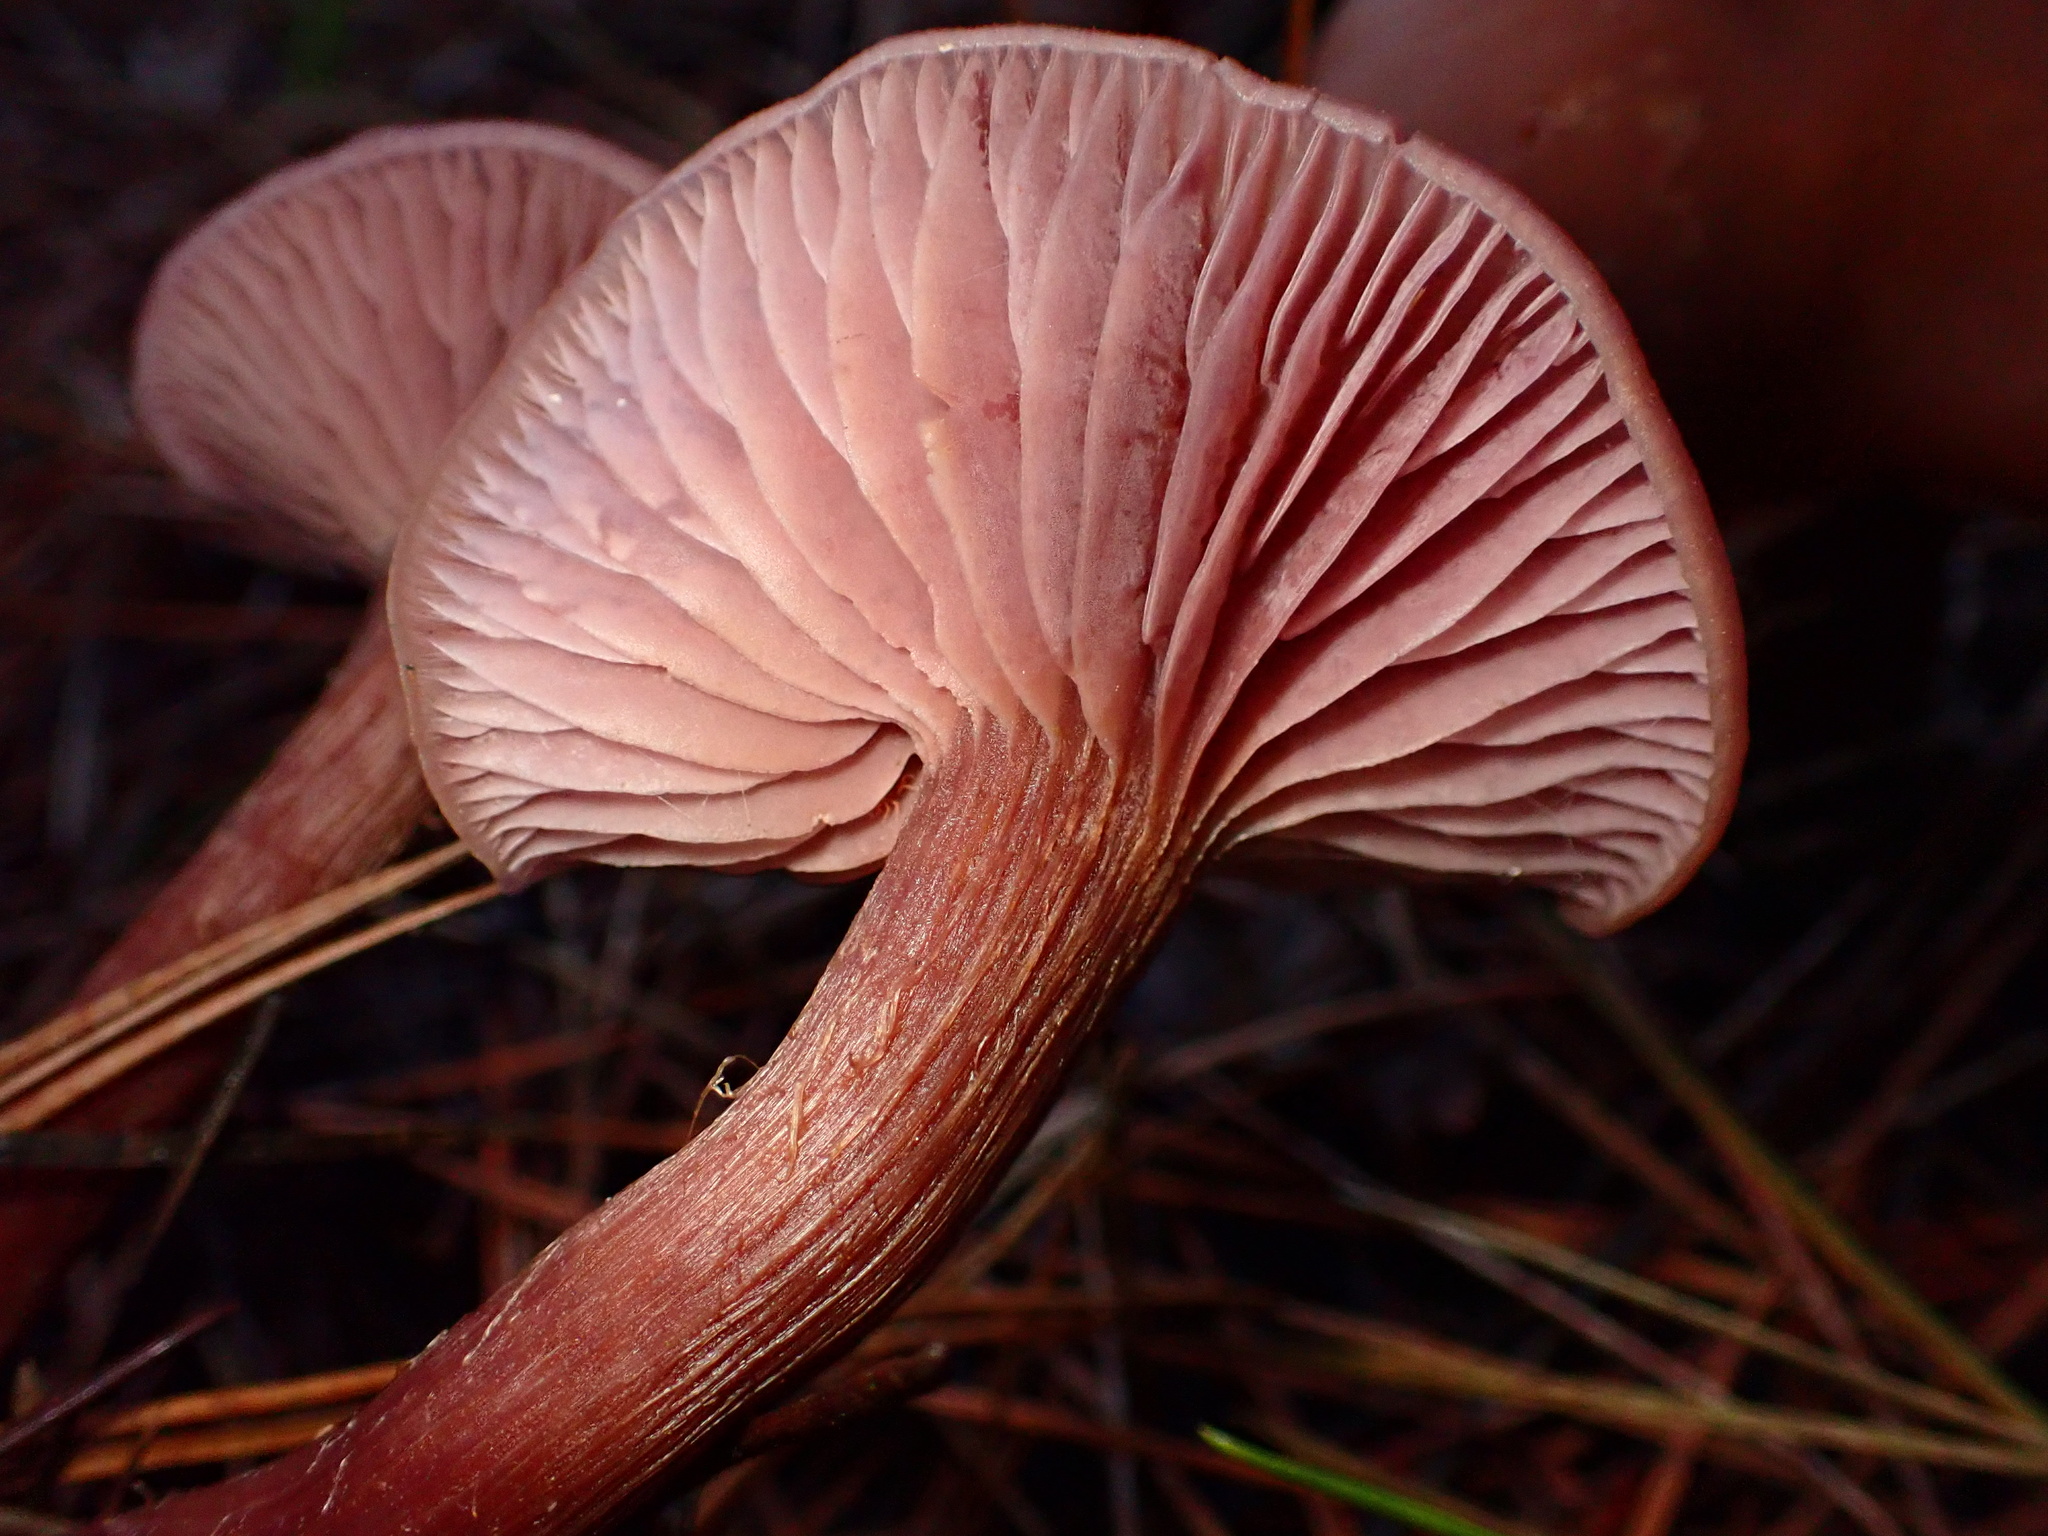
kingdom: Fungi
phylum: Basidiomycota
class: Agaricomycetes
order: Agaricales
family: Hydnangiaceae
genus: Laccaria
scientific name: Laccaria amethysteo-occidentalis
